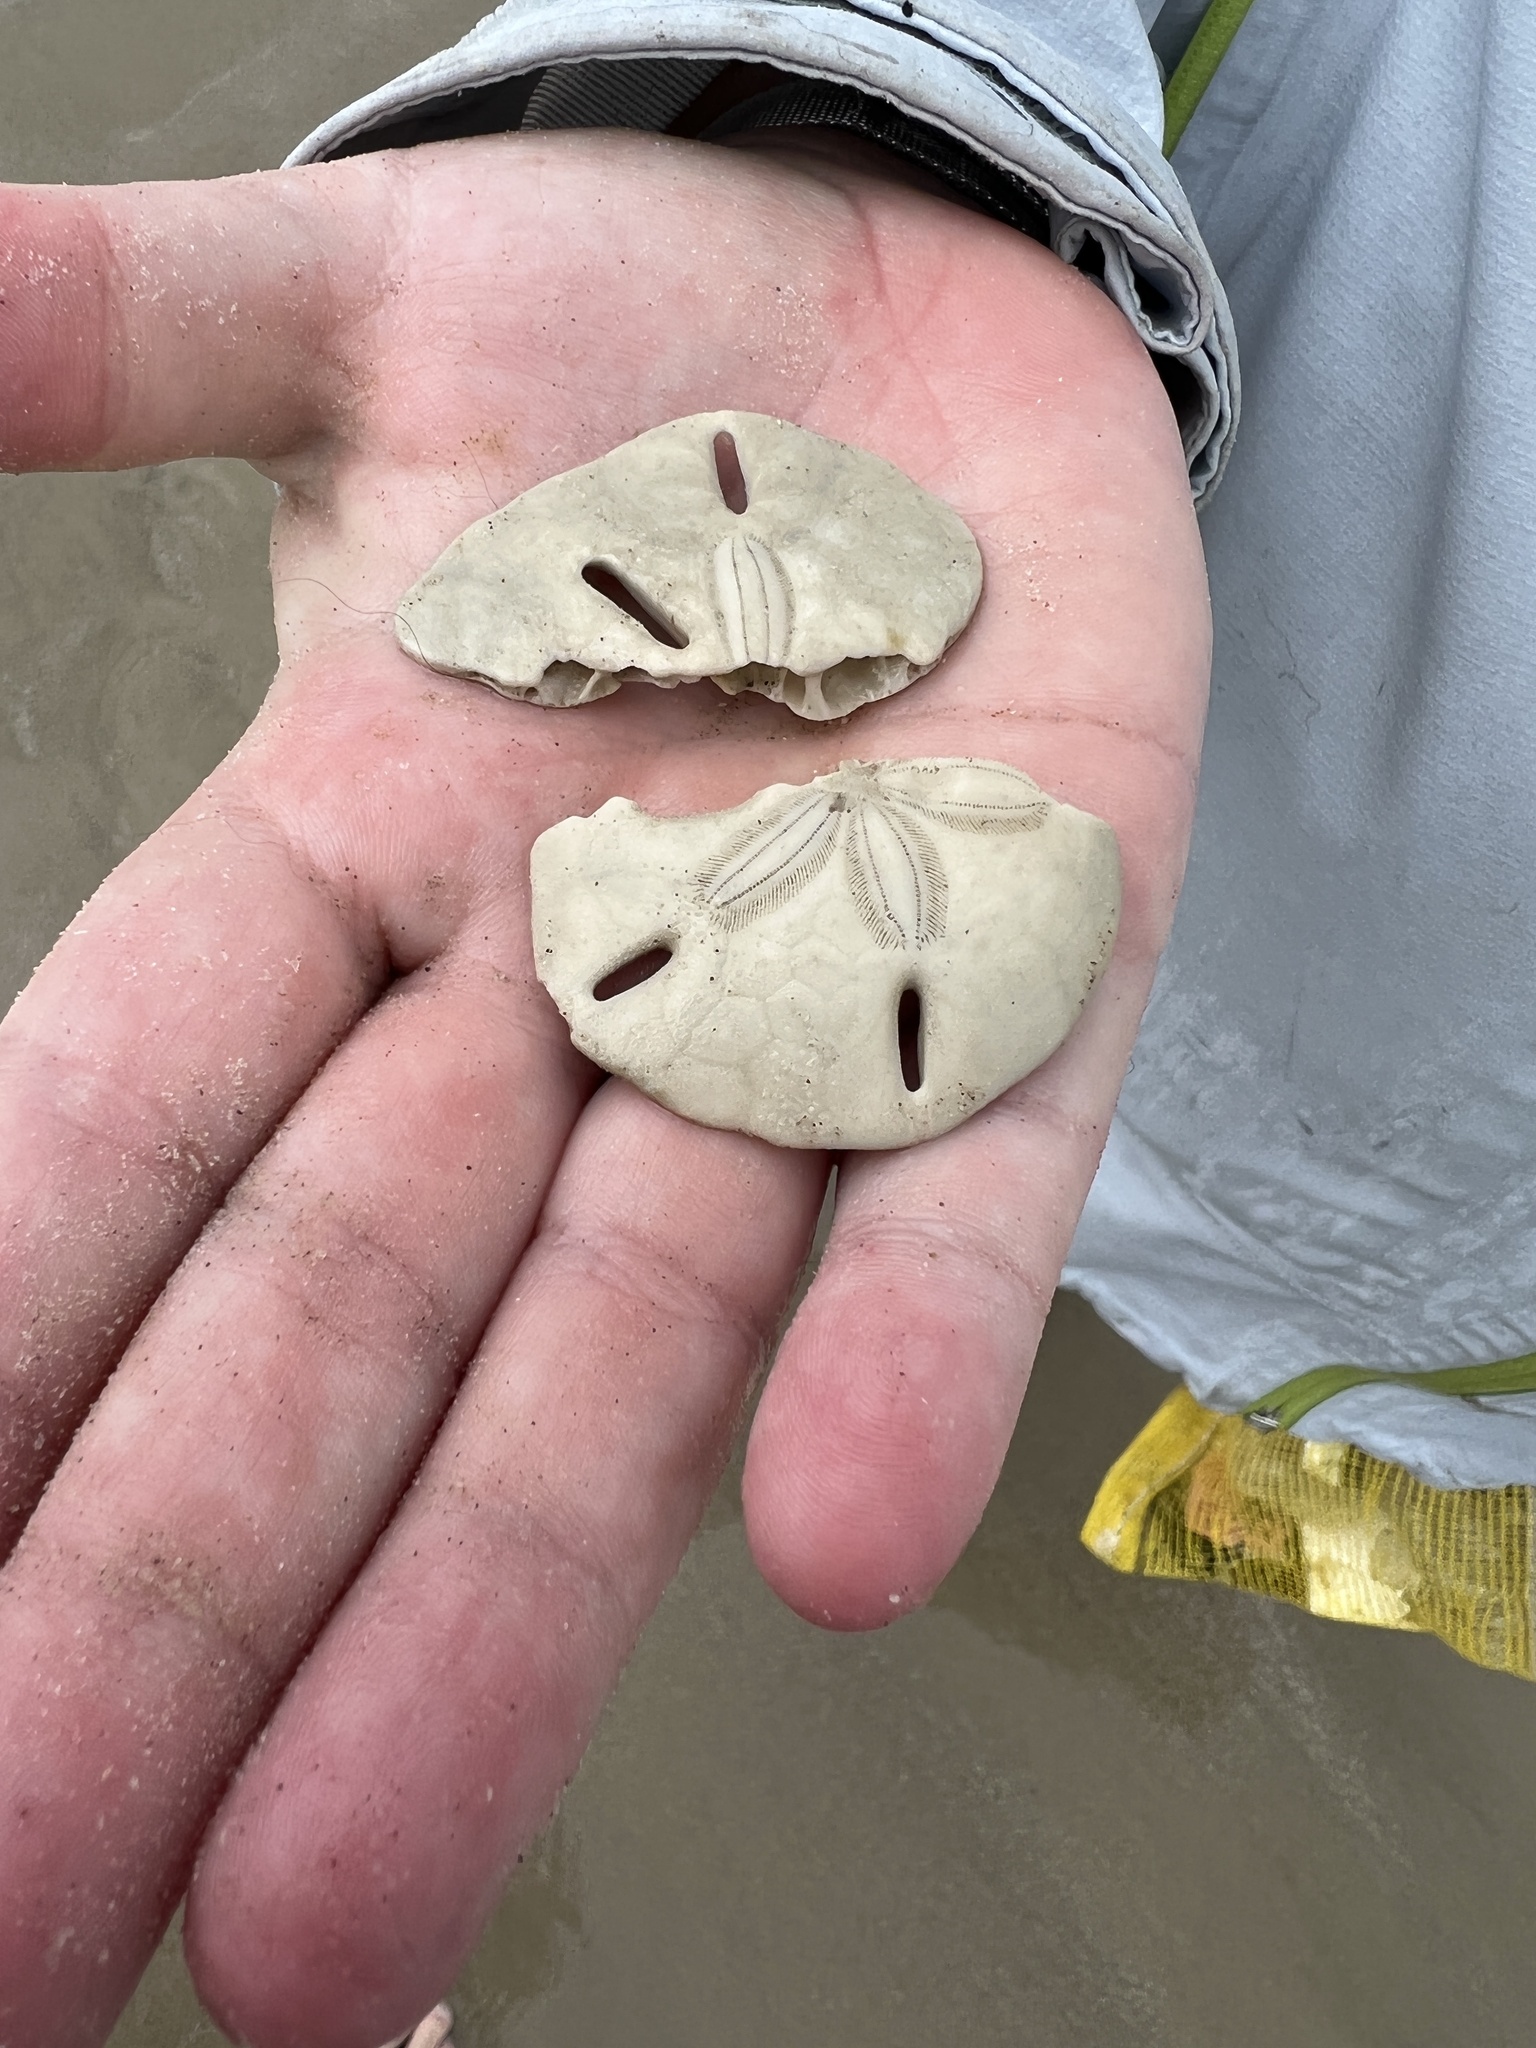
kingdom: Animalia
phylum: Echinodermata
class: Echinoidea
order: Echinolampadacea
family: Mellitidae
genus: Mellita
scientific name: Mellita quinquiesperforata
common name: Sand dollar
